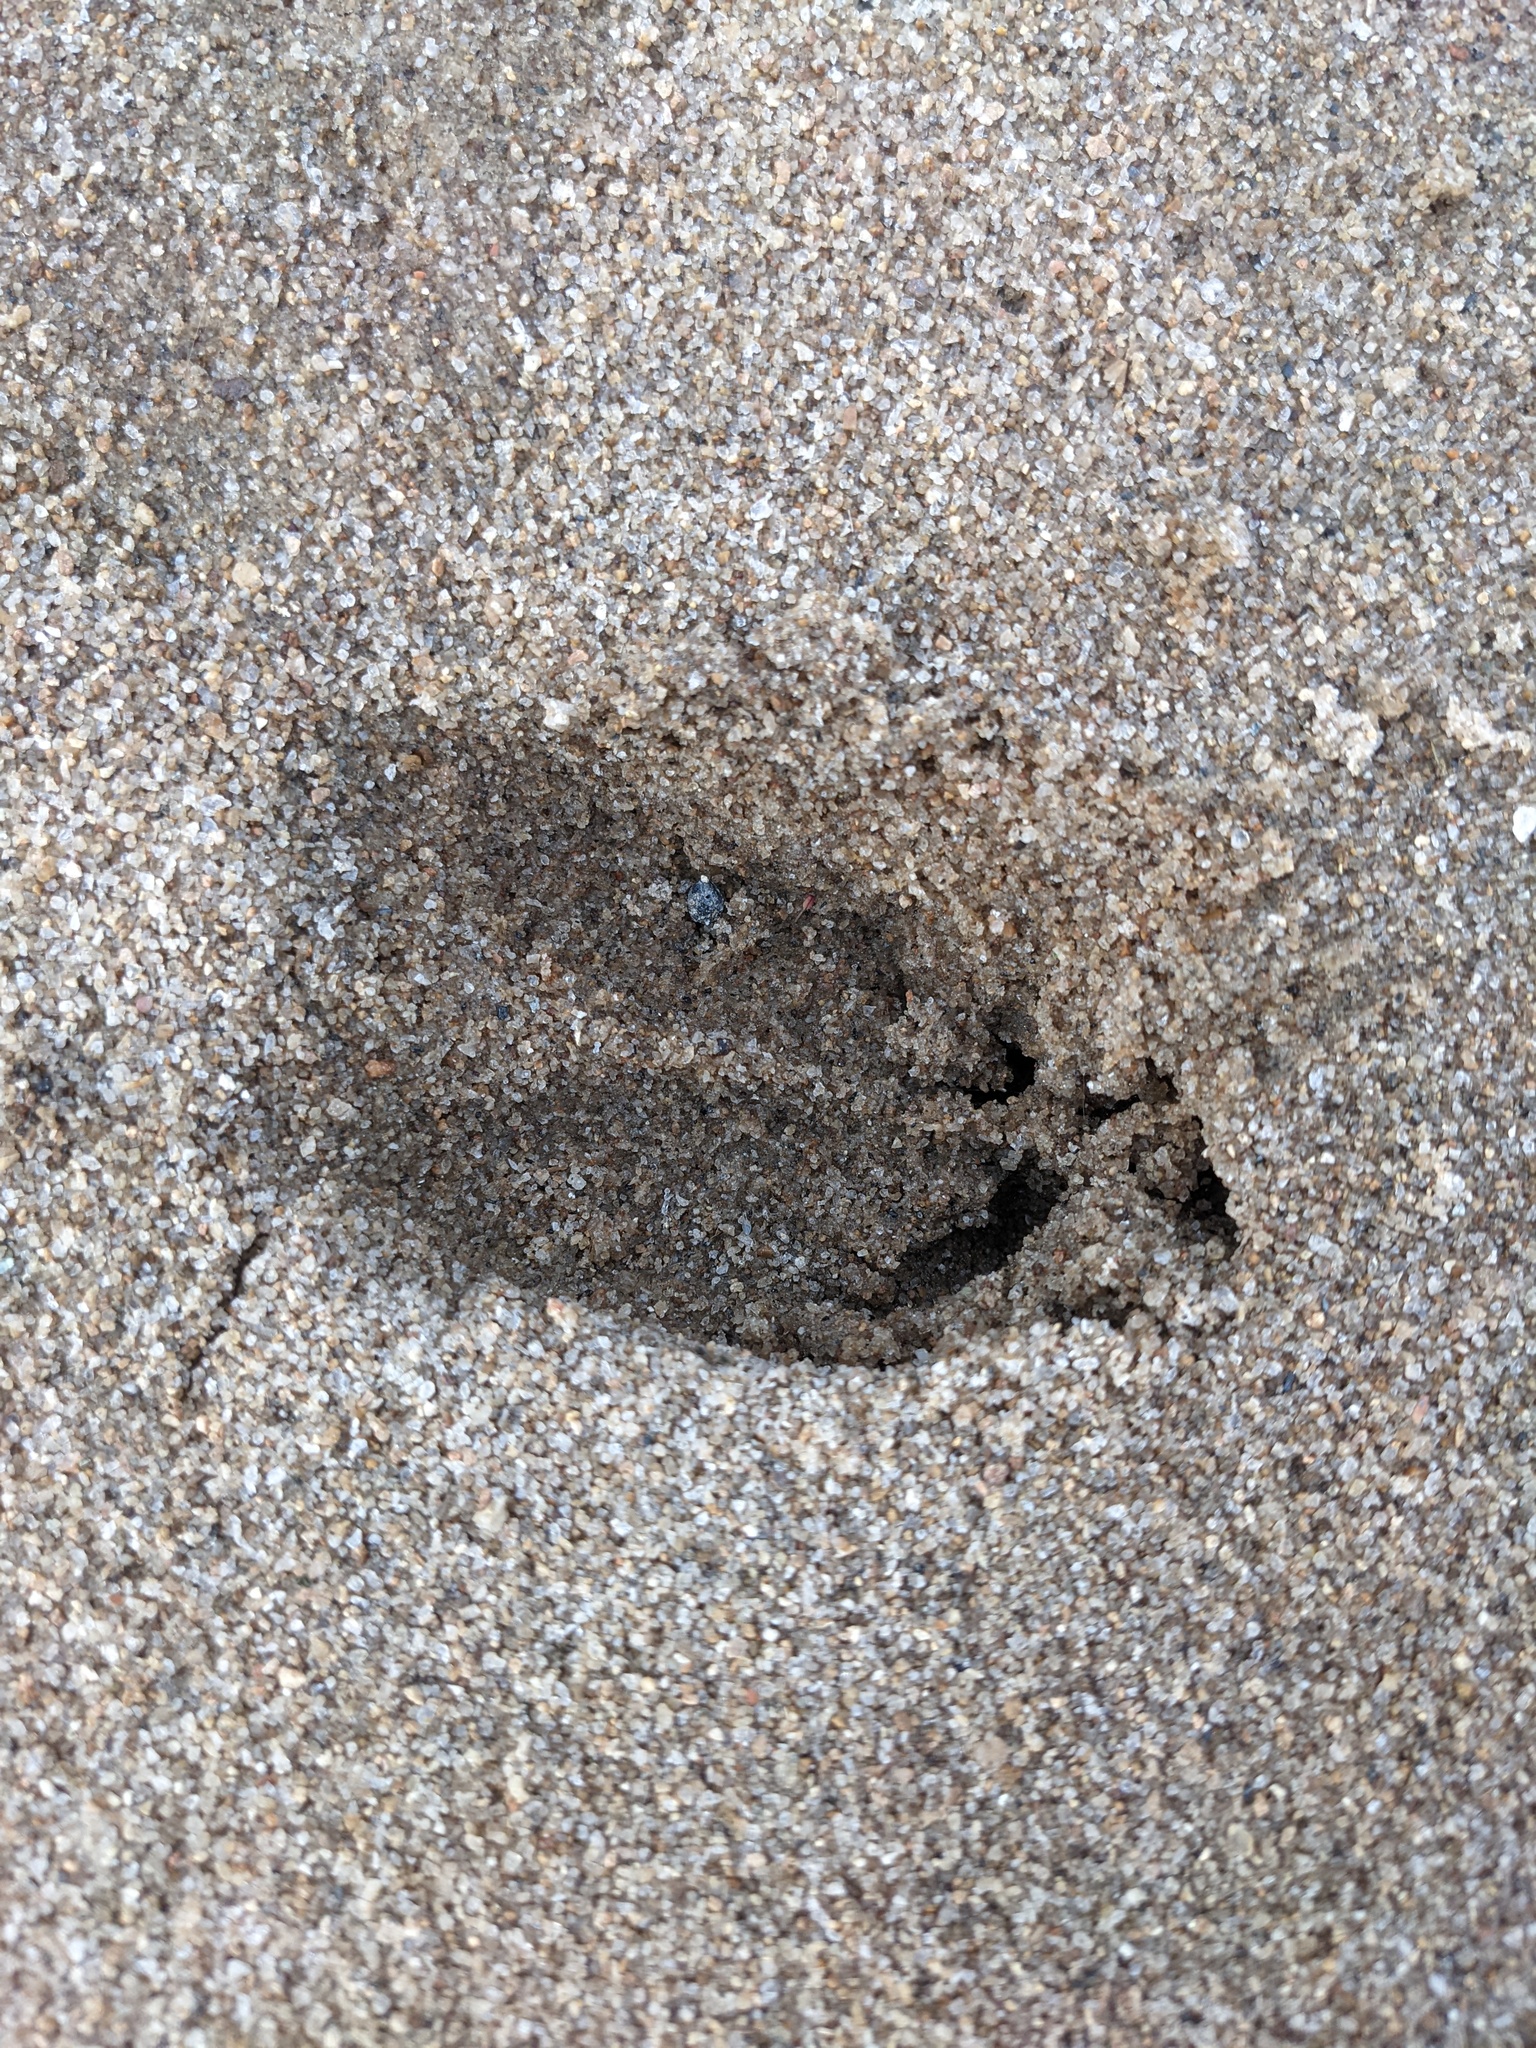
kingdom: Animalia
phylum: Chordata
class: Mammalia
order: Artiodactyla
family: Cervidae
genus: Odocoileus
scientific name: Odocoileus virginianus
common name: White-tailed deer
